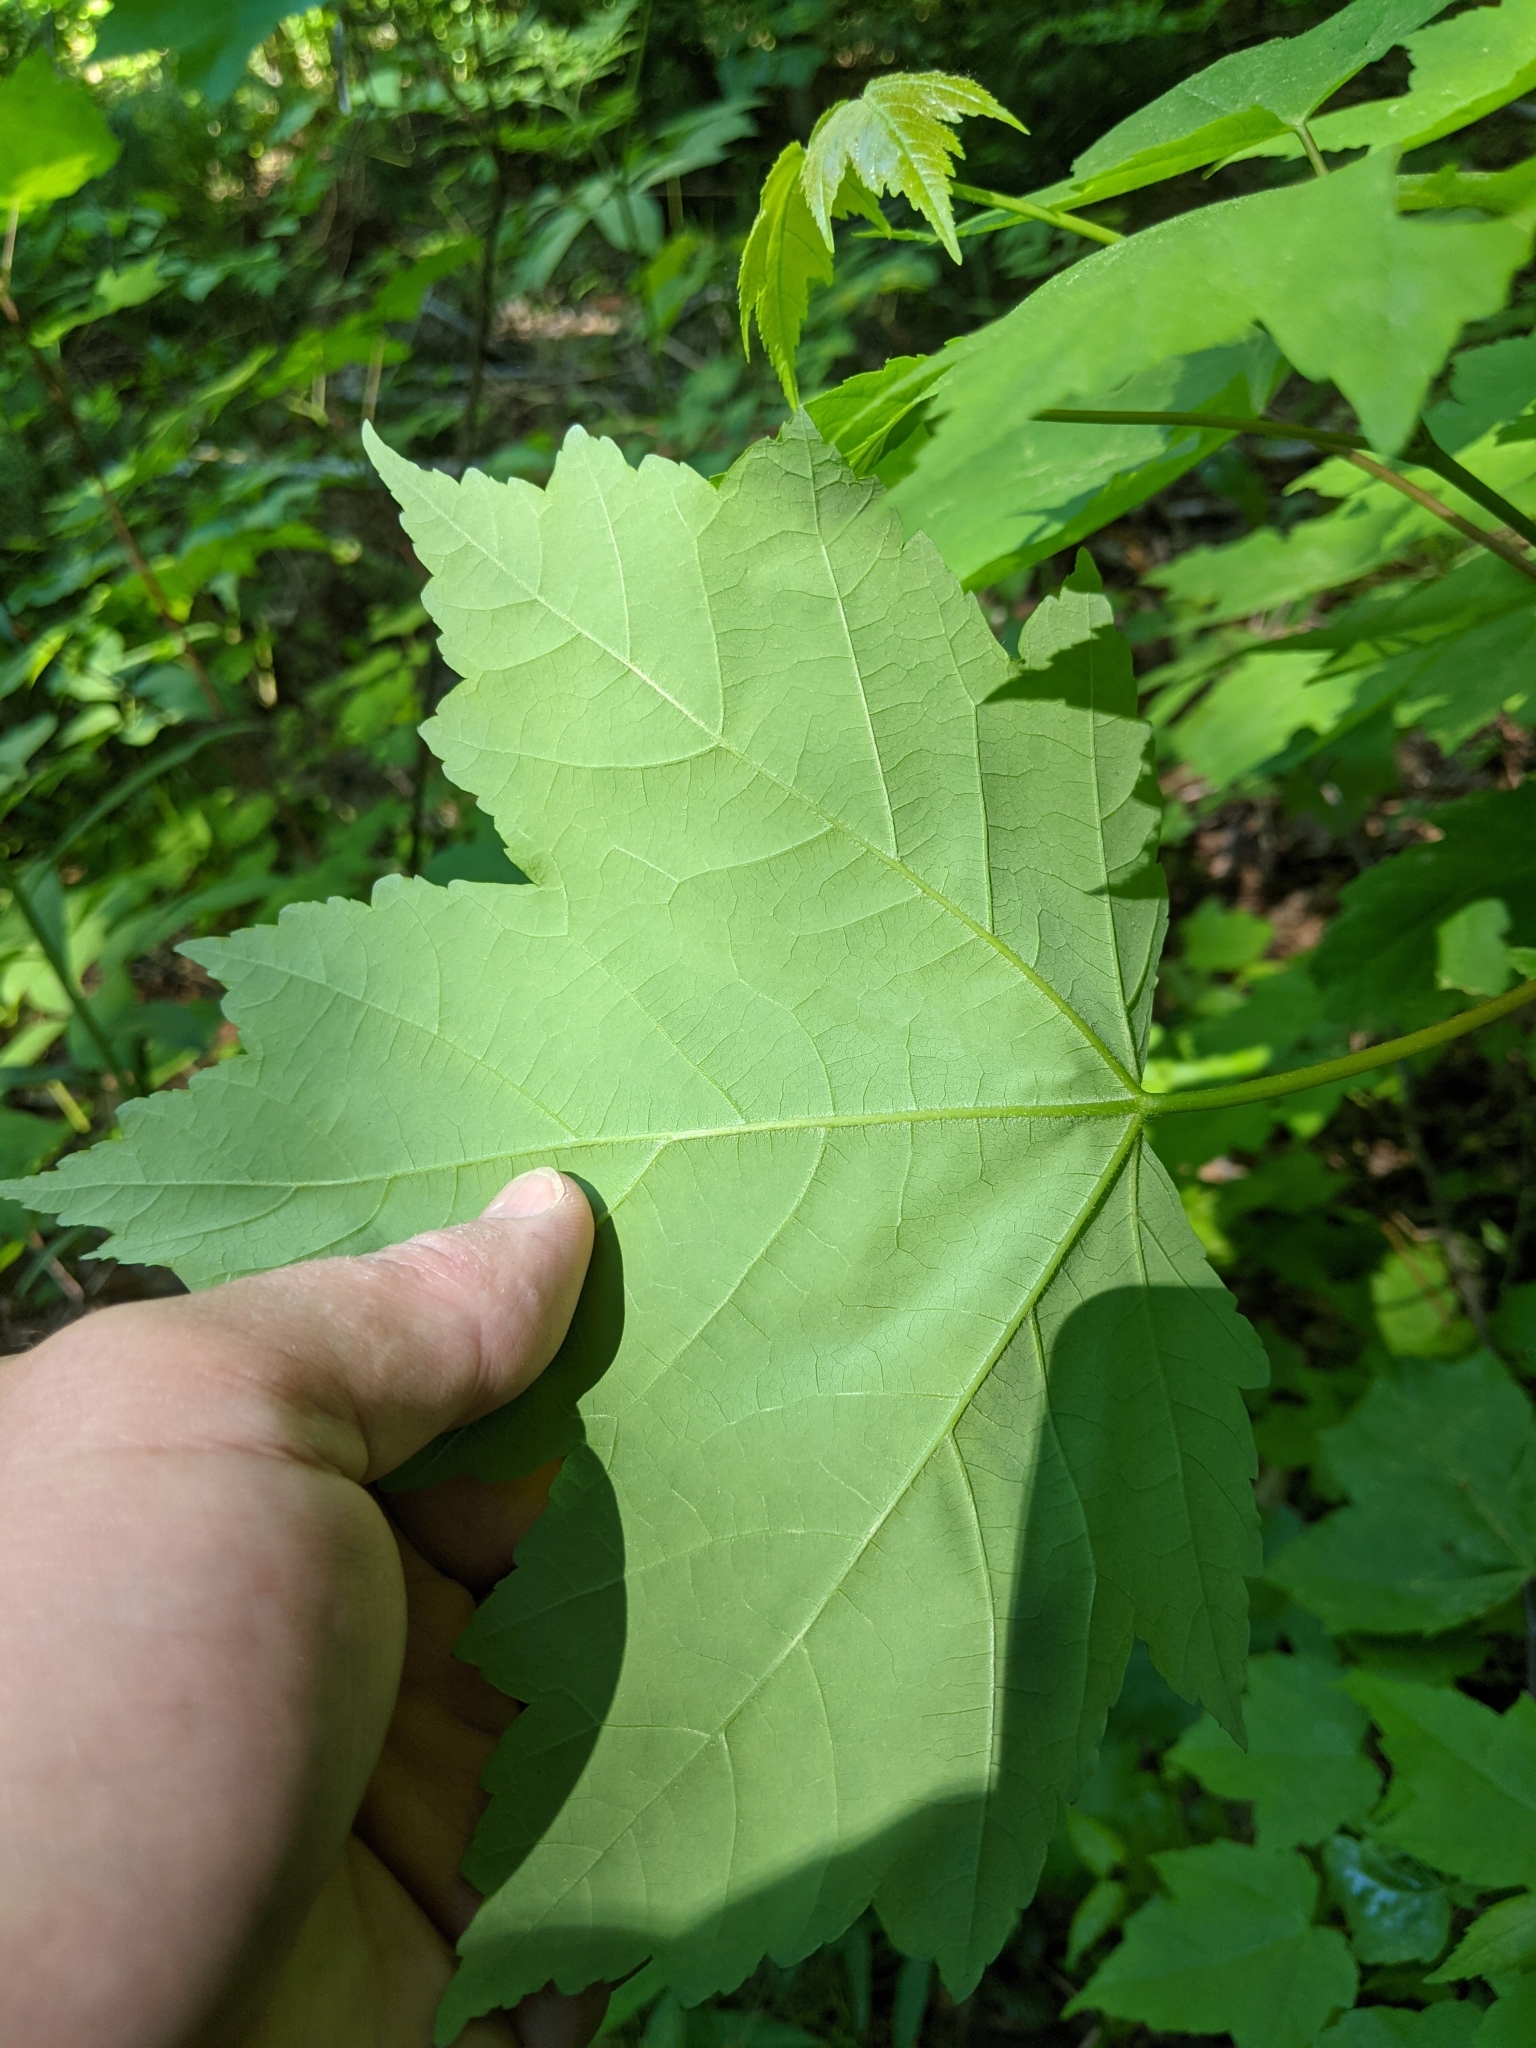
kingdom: Plantae
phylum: Tracheophyta
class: Magnoliopsida
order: Sapindales
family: Sapindaceae
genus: Acer
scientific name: Acer rubrum
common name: Red maple
